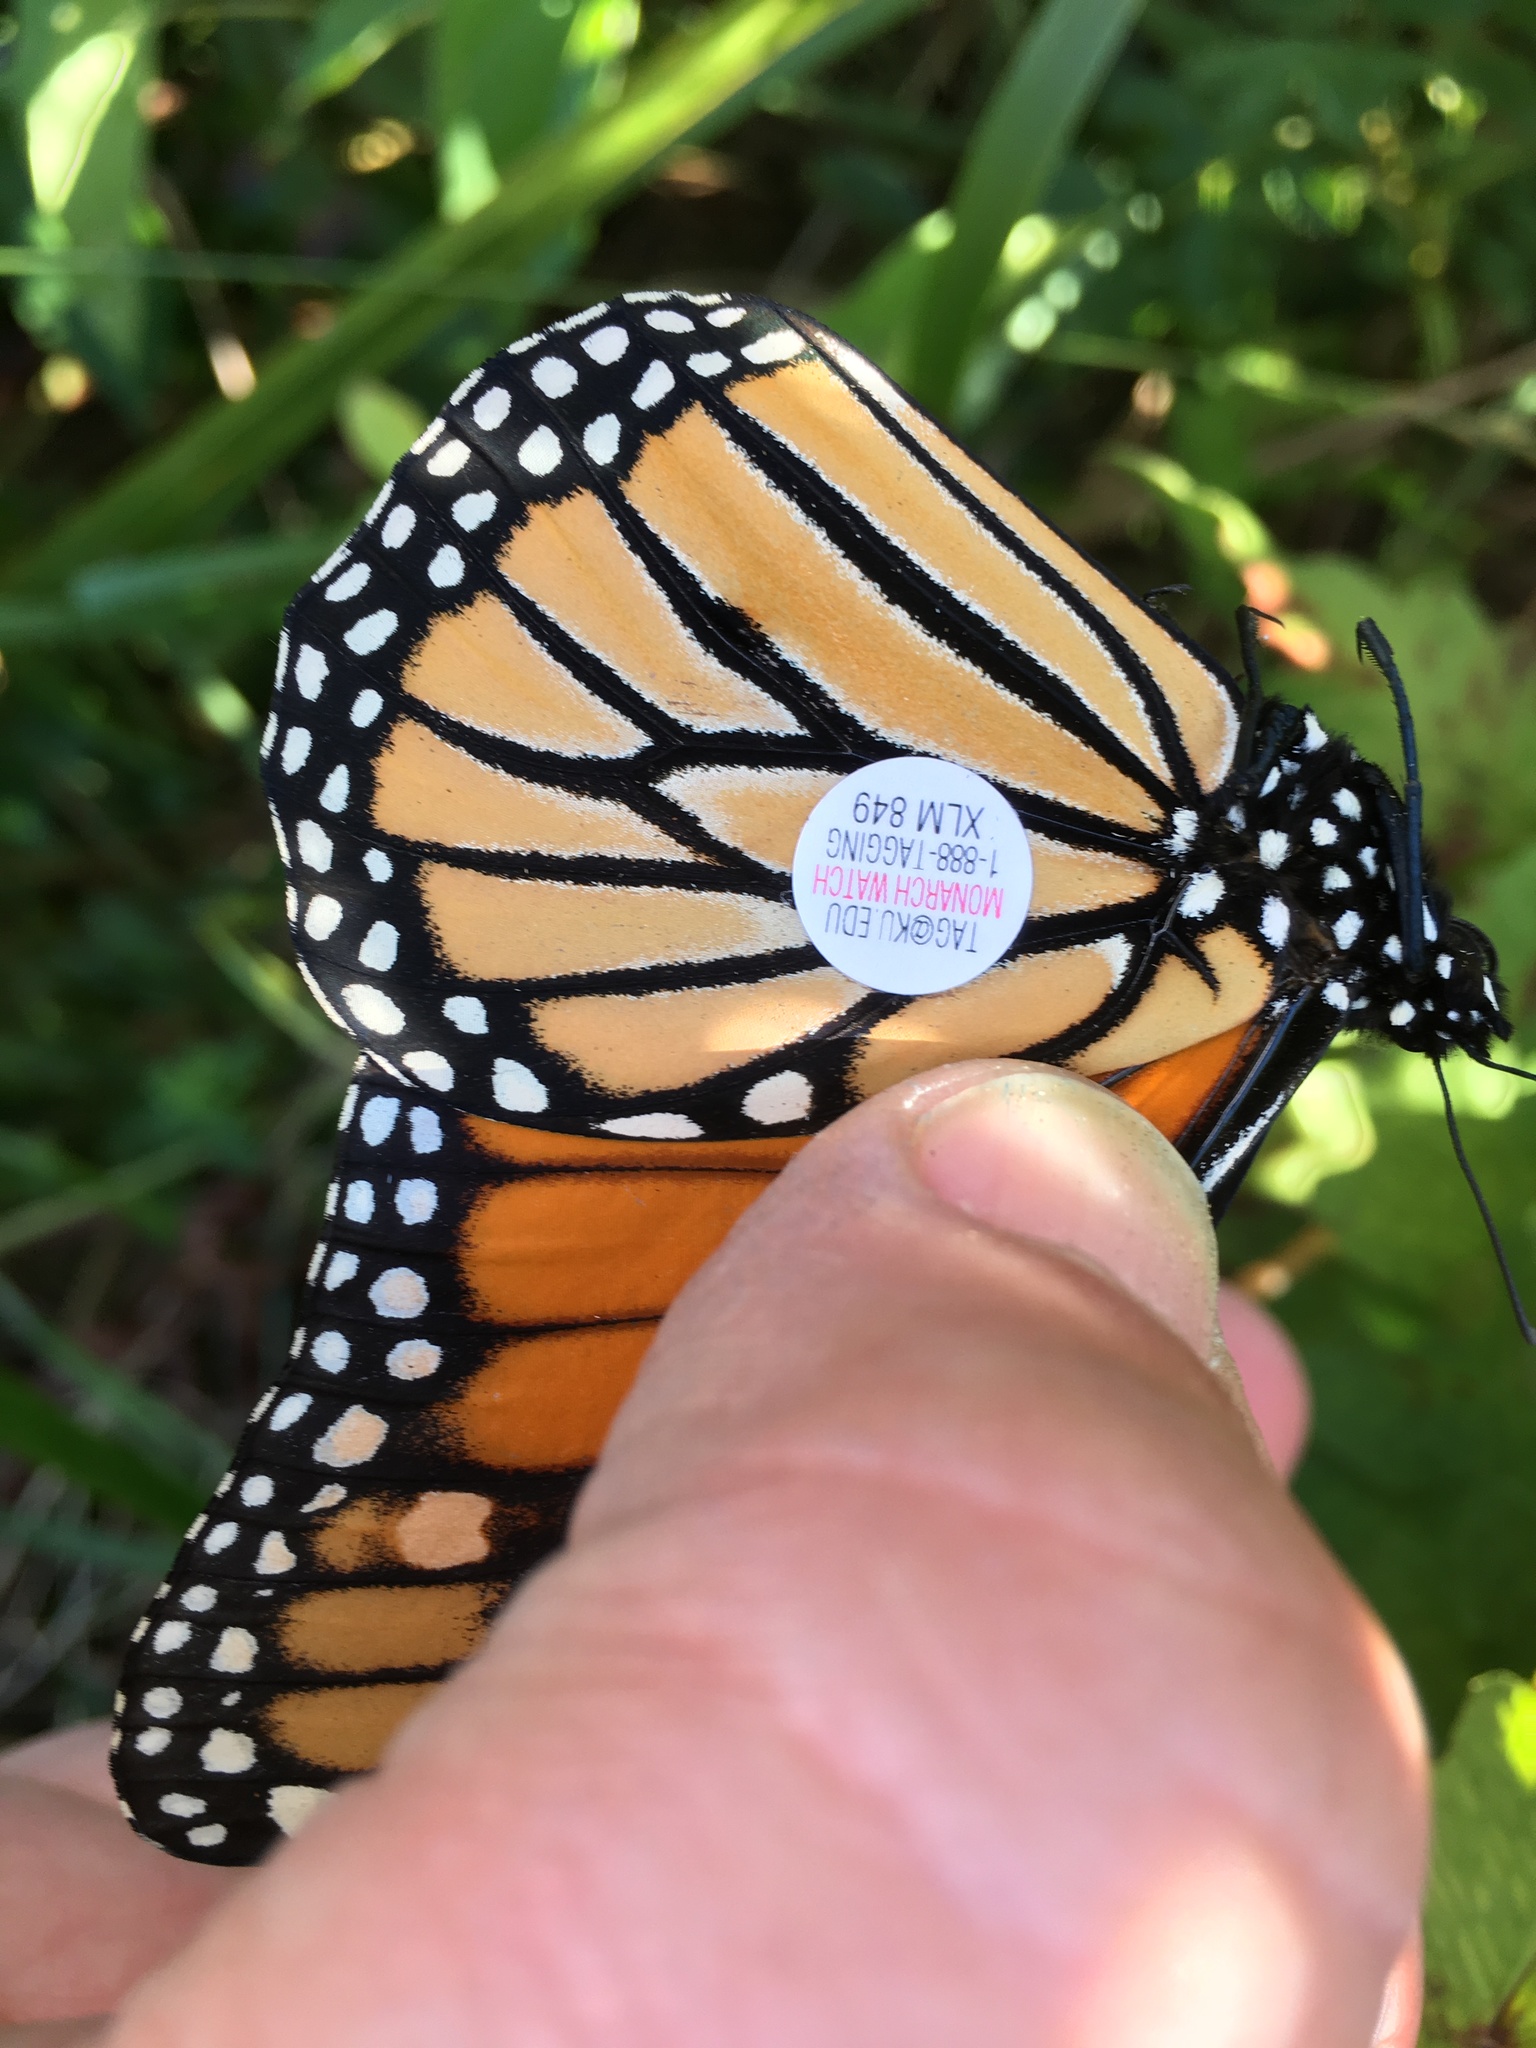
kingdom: Animalia
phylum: Arthropoda
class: Insecta
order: Lepidoptera
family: Nymphalidae
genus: Danaus
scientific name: Danaus plexippus
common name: Monarch
